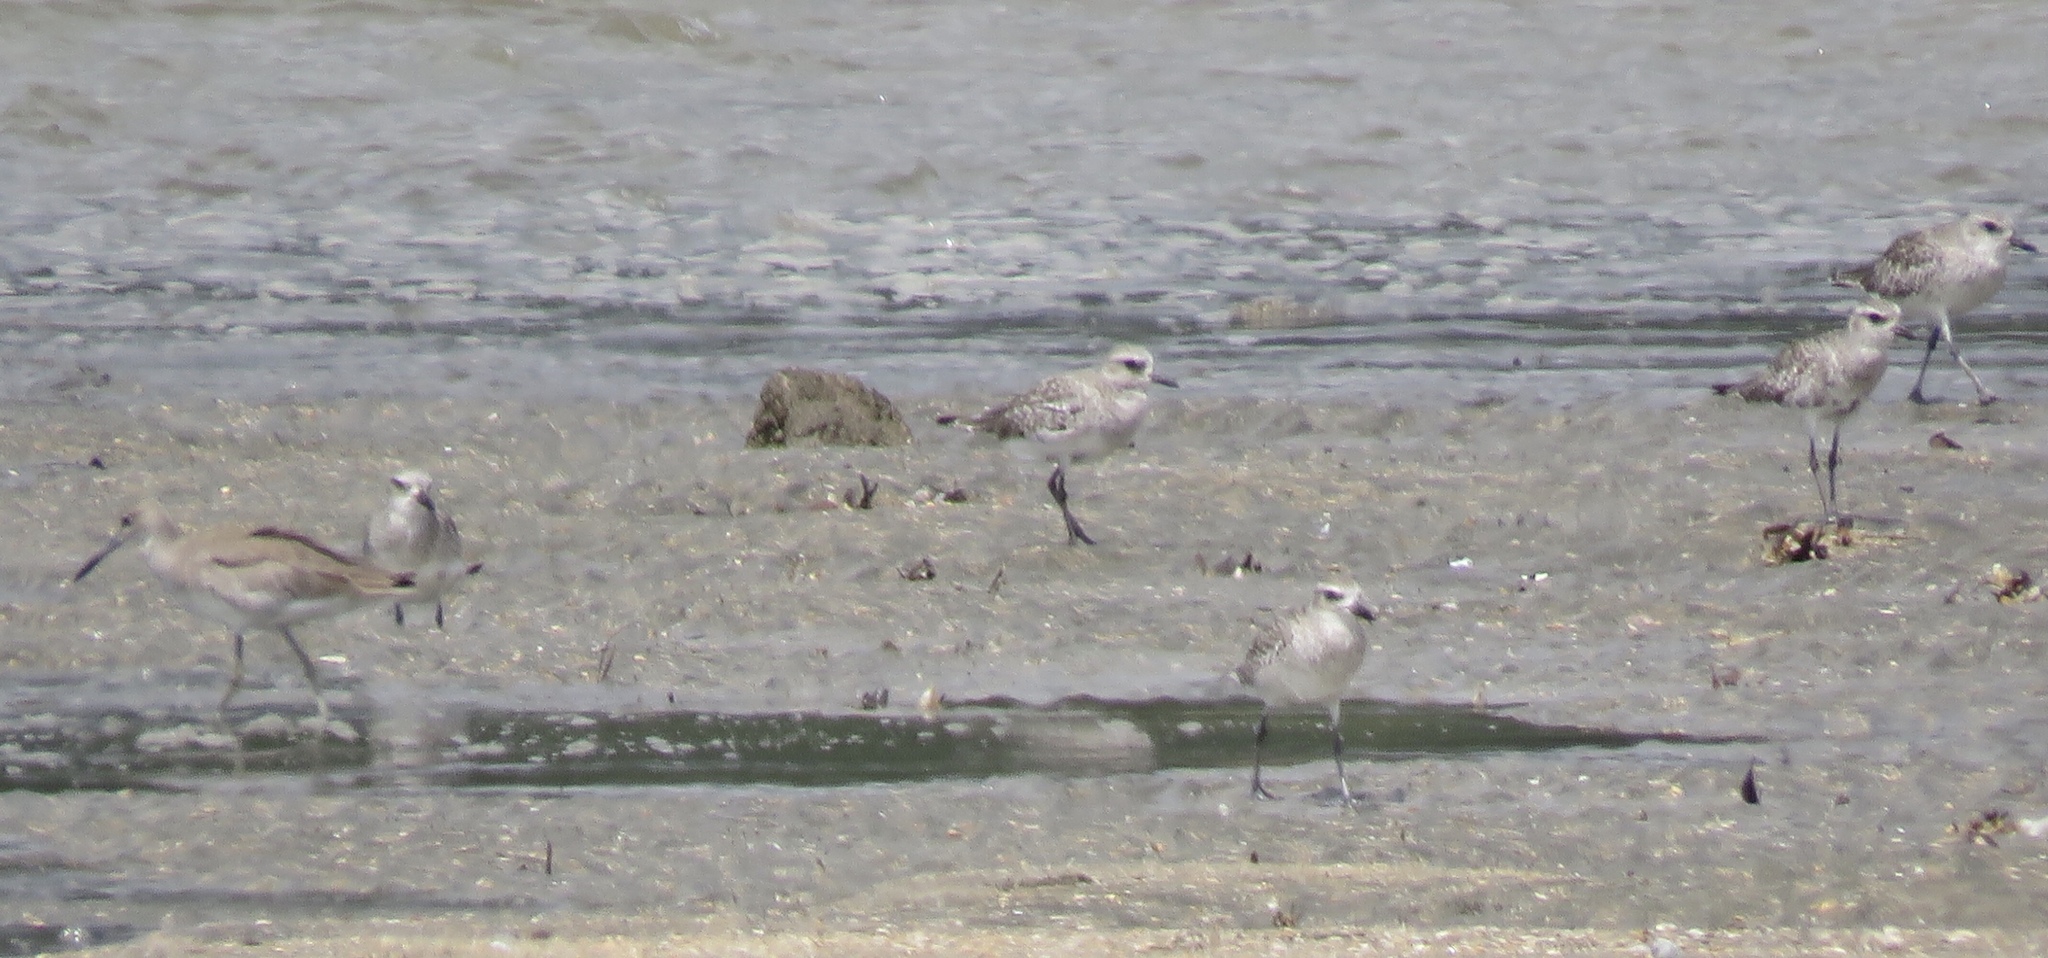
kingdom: Animalia
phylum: Chordata
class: Aves
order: Charadriiformes
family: Charadriidae
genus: Pluvialis
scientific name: Pluvialis squatarola
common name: Grey plover
